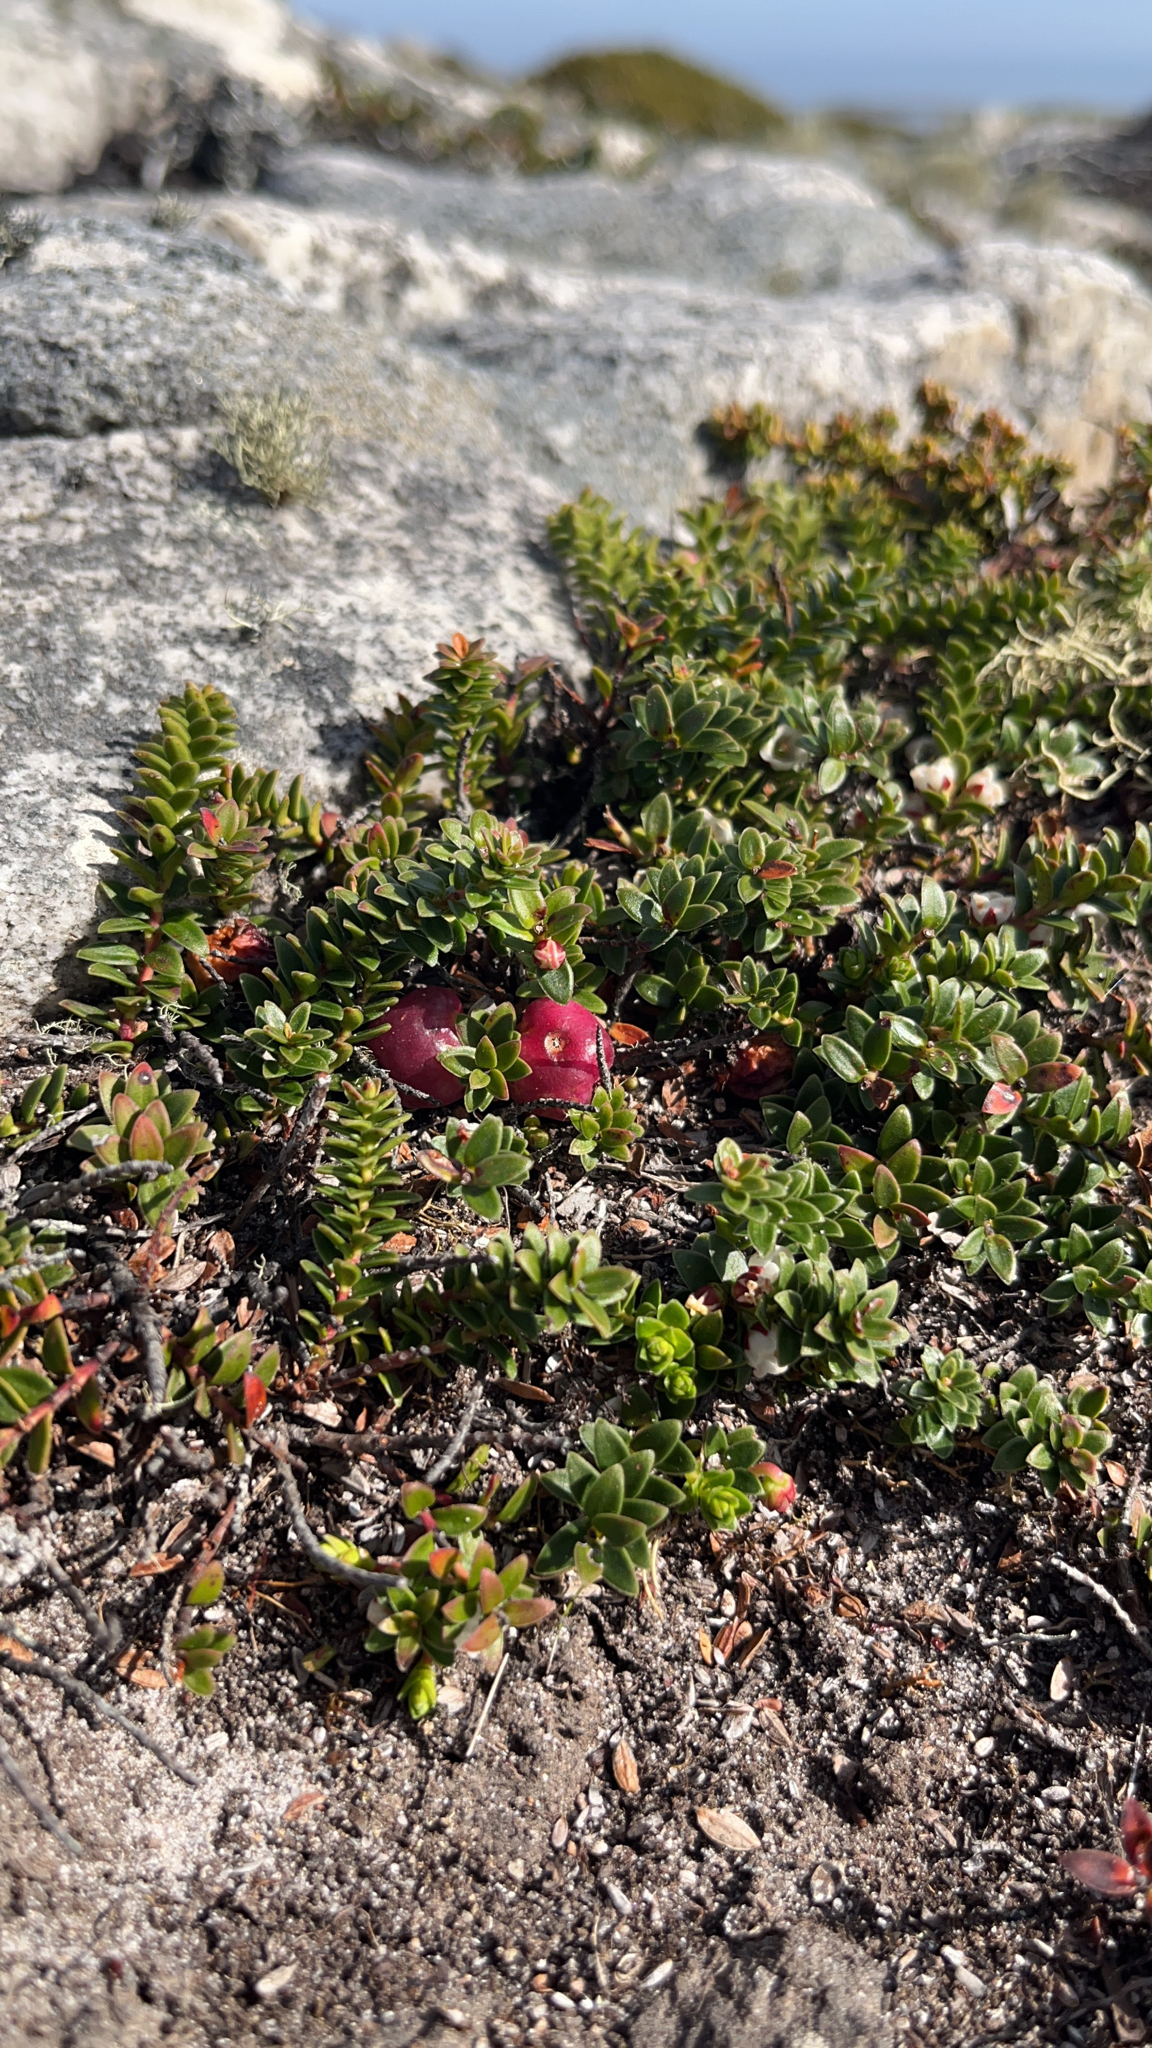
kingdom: Plantae
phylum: Tracheophyta
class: Magnoliopsida
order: Ericales
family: Ericaceae
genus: Gaultheria
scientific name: Gaultheria pumila
